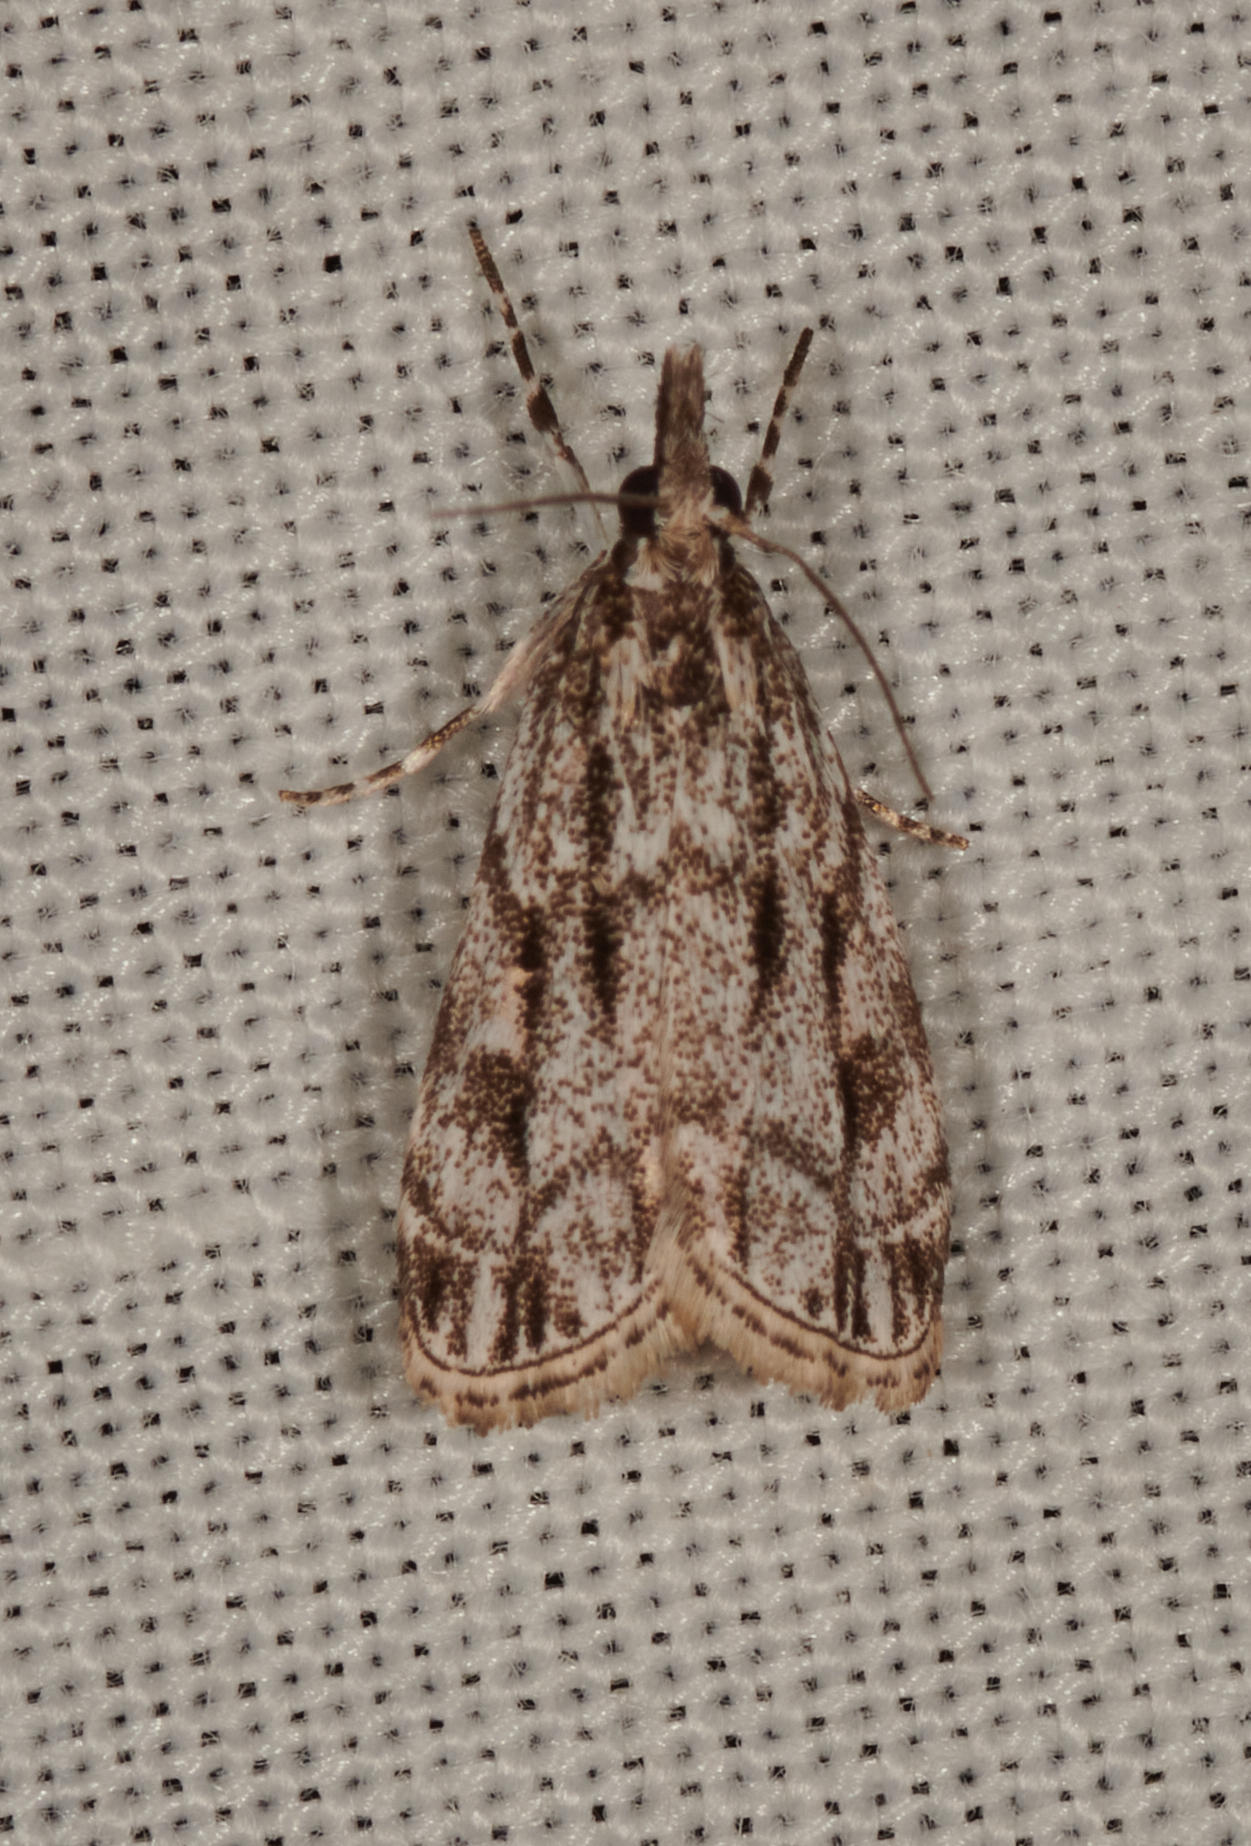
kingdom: Animalia
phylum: Arthropoda
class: Insecta
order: Lepidoptera
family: Crambidae
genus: Eudonia
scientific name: Eudonia strigalis
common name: Striped eudonia moth
